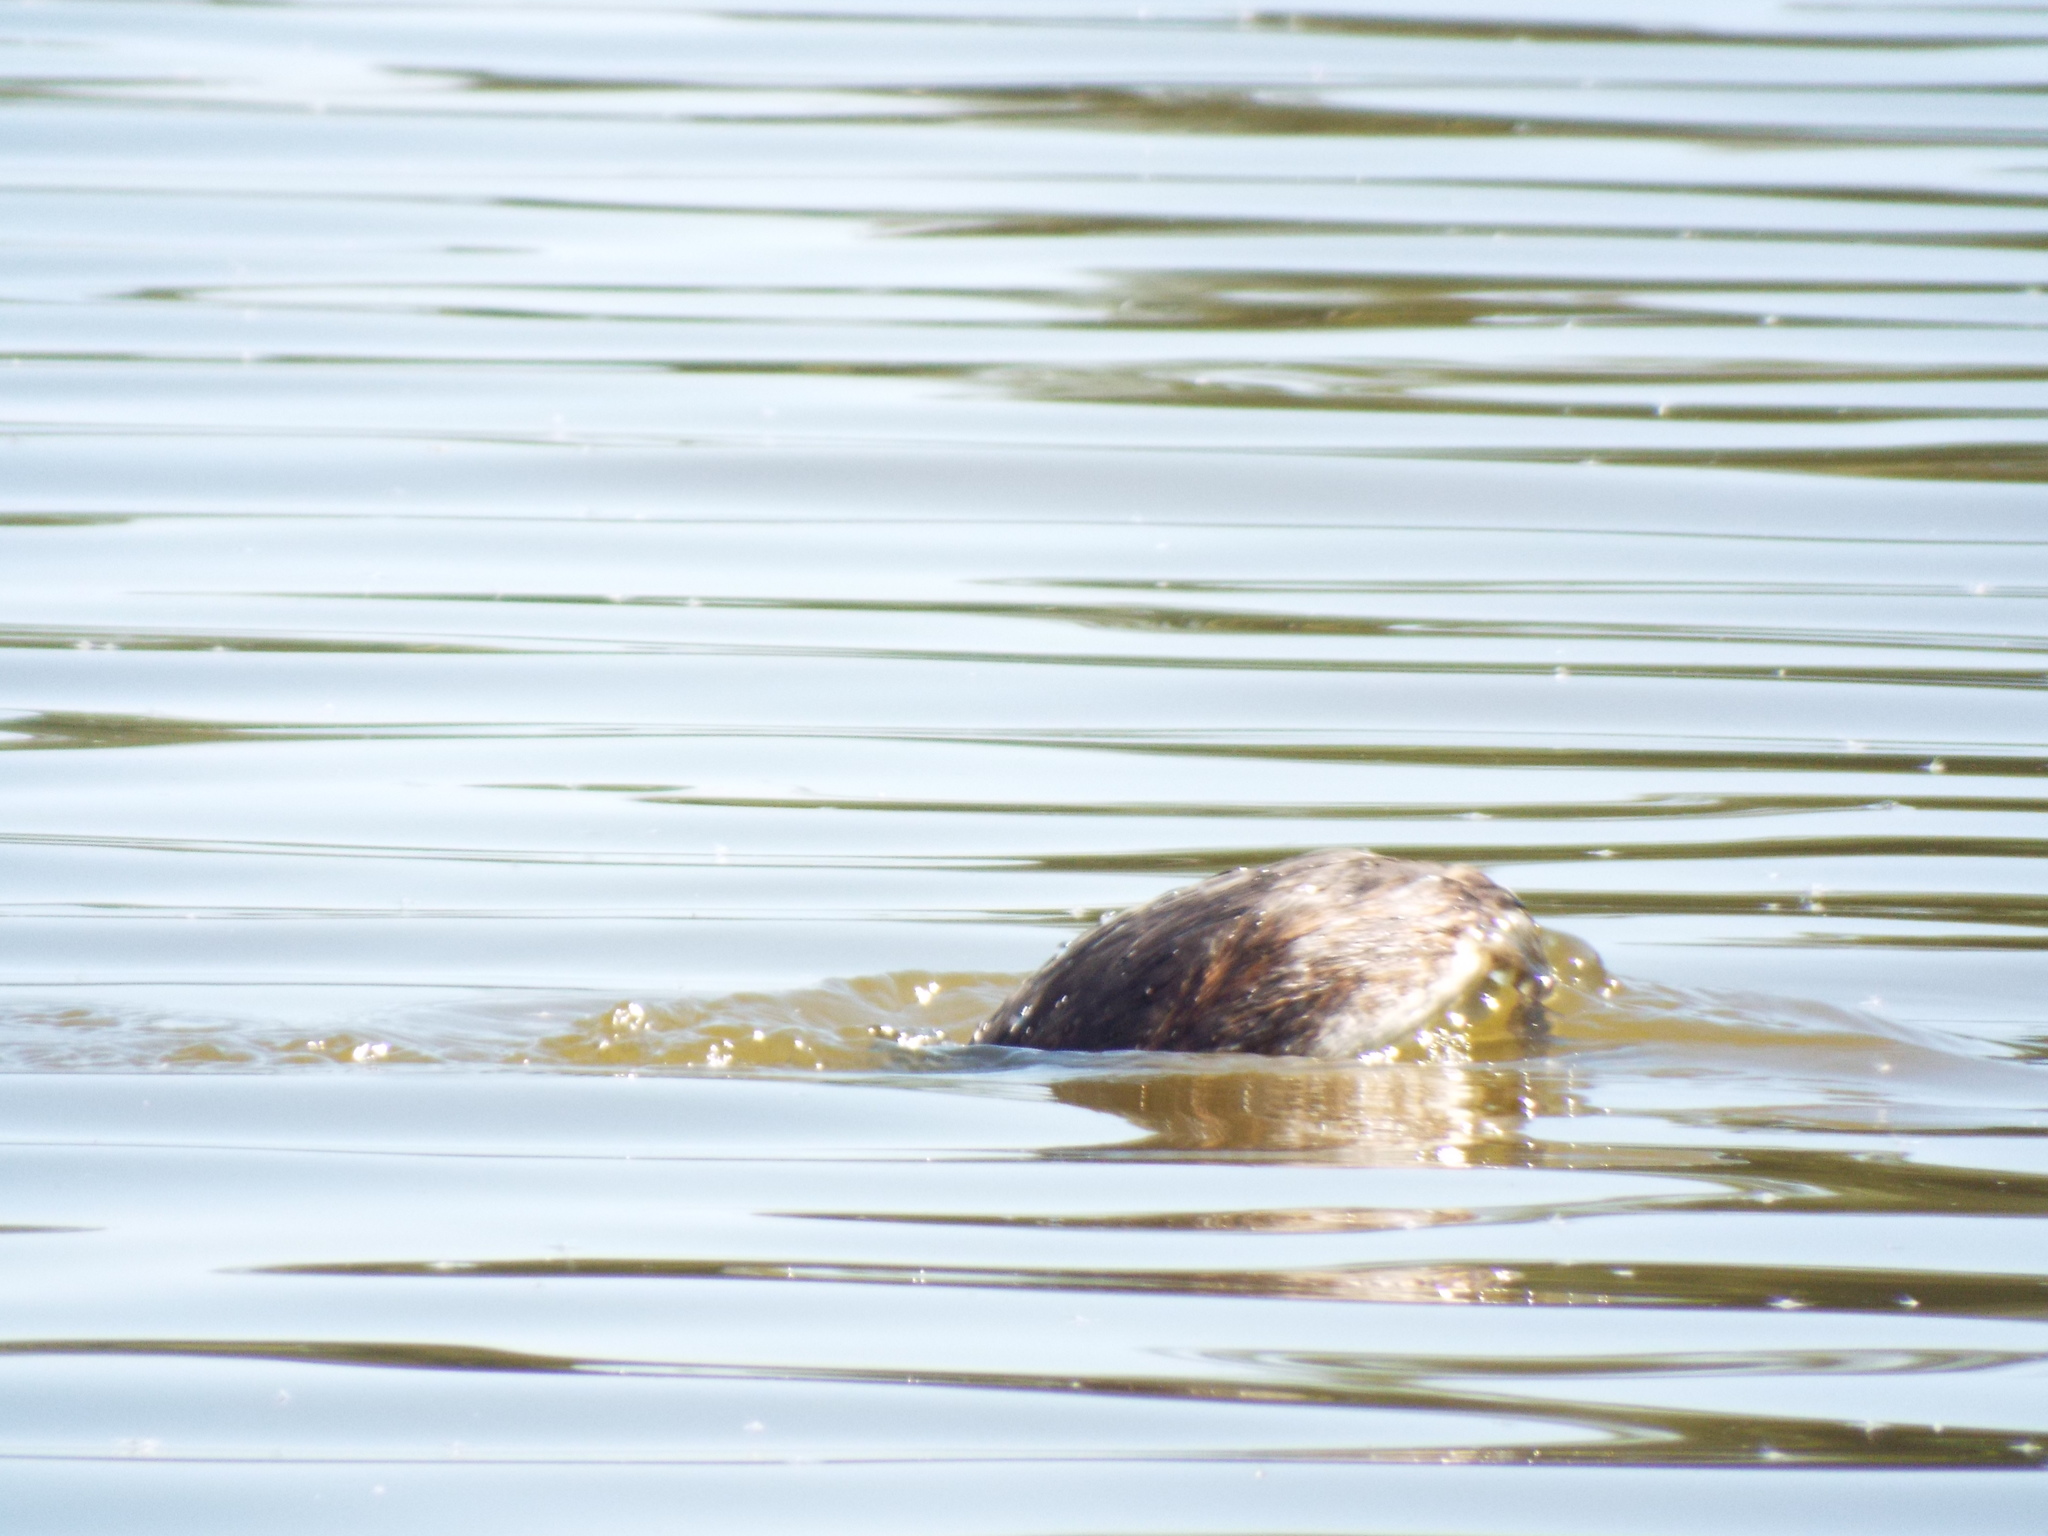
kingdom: Animalia
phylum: Chordata
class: Aves
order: Podicipediformes
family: Podicipedidae
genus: Podiceps
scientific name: Podiceps cristatus
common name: Great crested grebe
